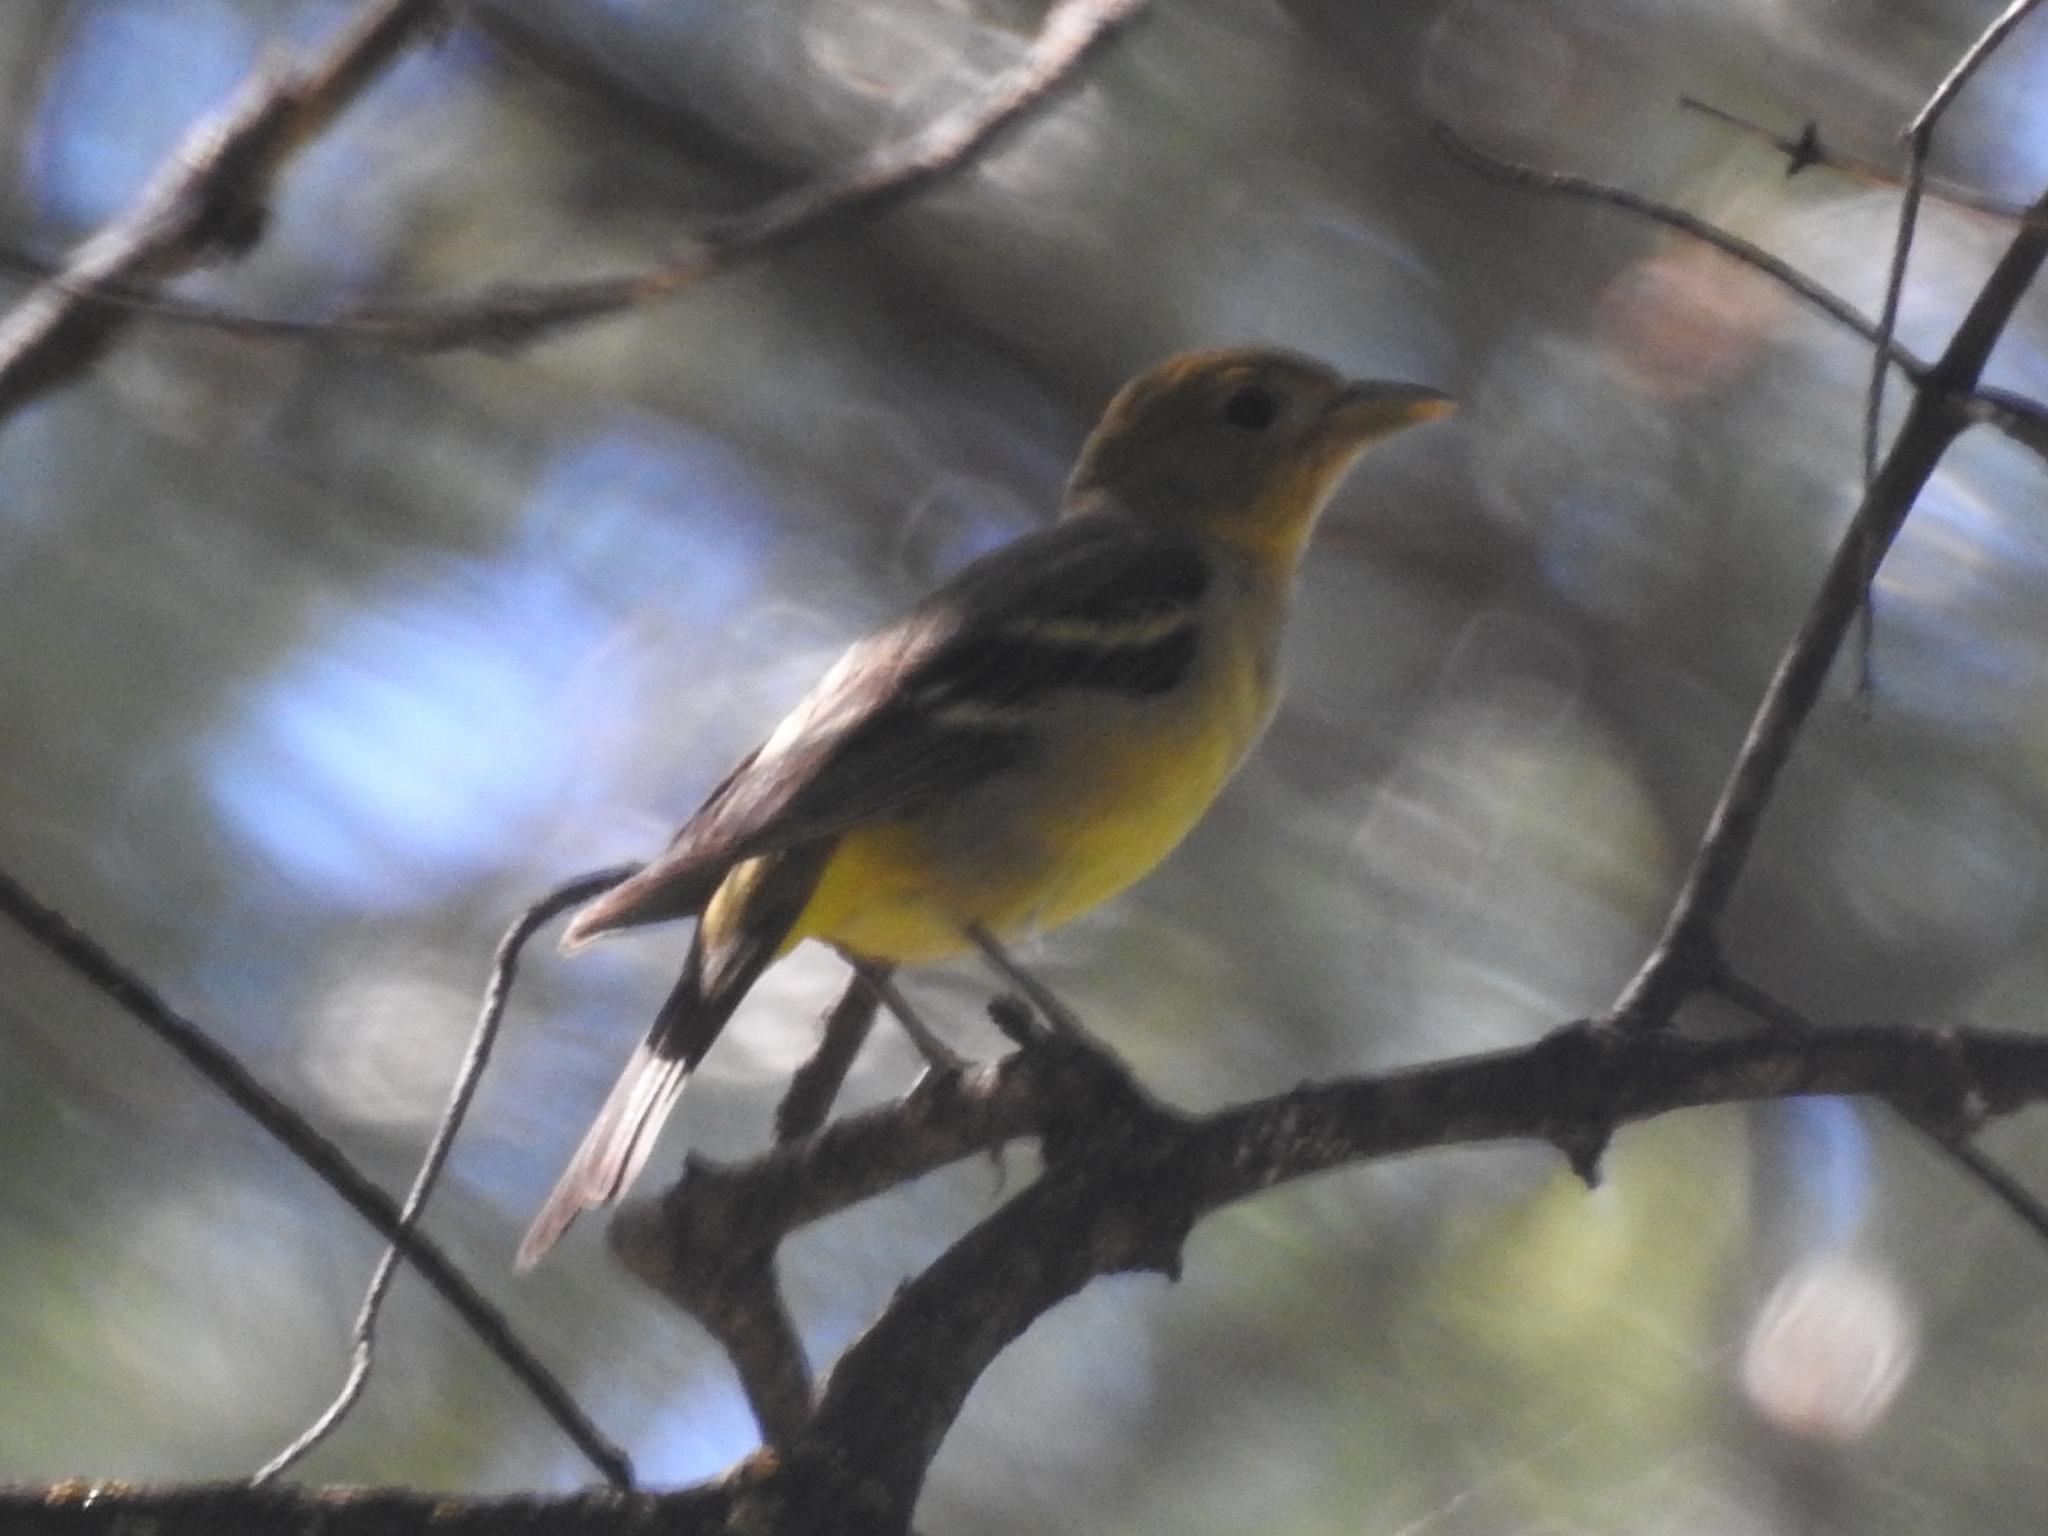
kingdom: Animalia
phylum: Chordata
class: Aves
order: Passeriformes
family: Cardinalidae
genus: Piranga
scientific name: Piranga ludoviciana
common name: Western tanager
